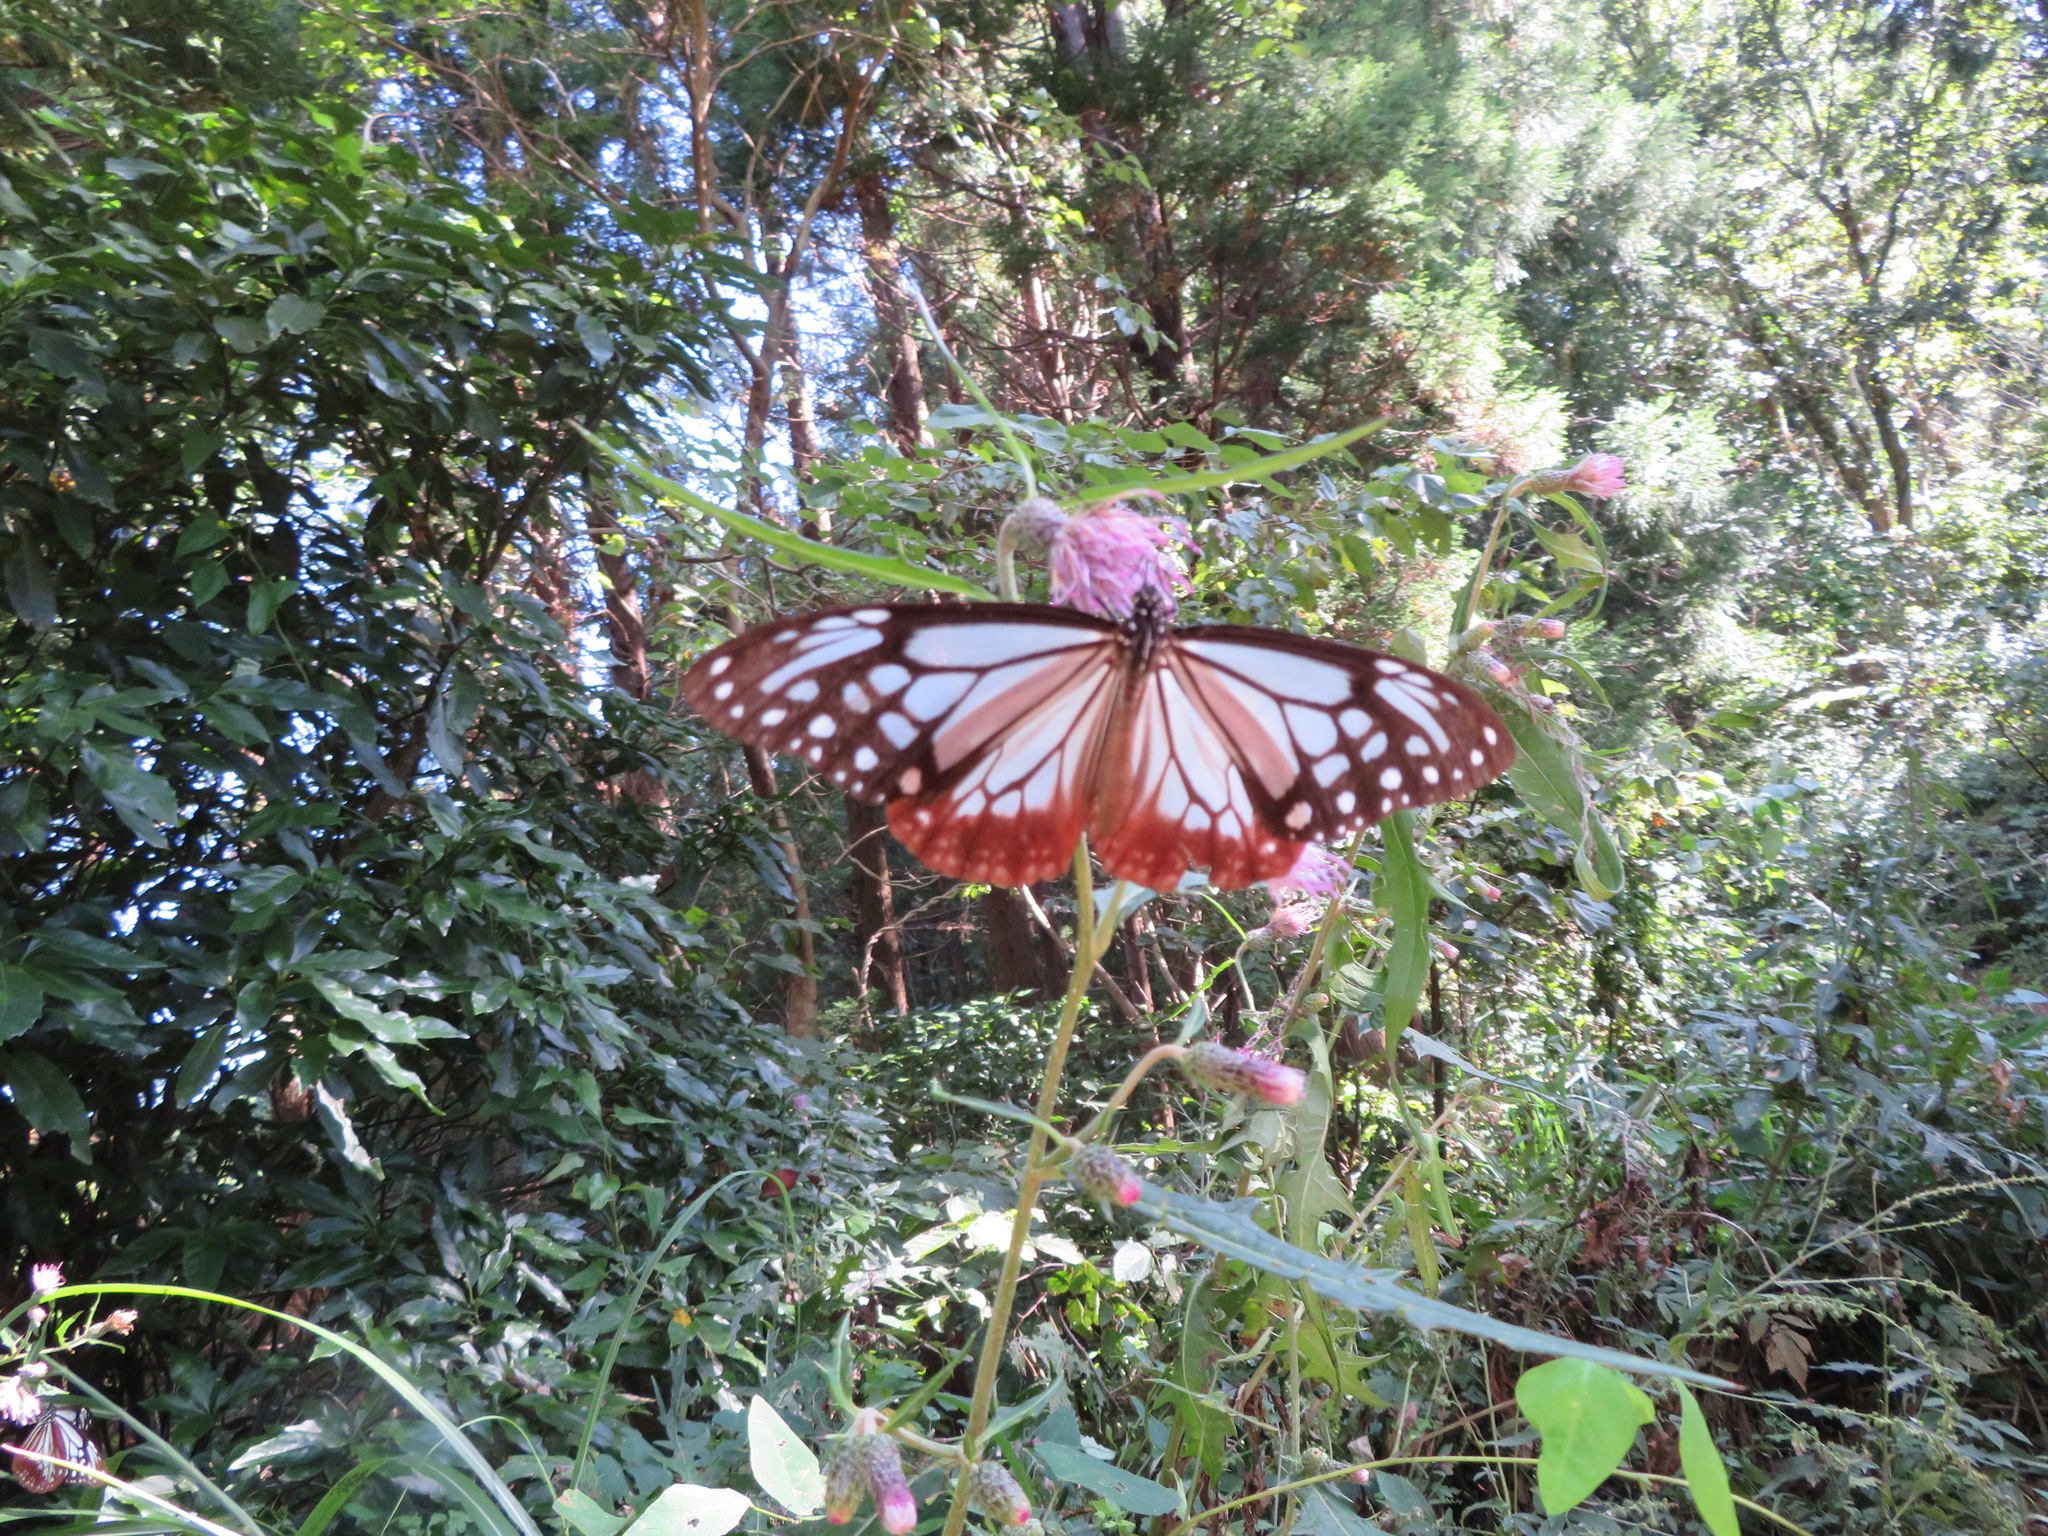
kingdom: Animalia
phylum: Arthropoda
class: Insecta
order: Lepidoptera
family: Nymphalidae
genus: Parantica
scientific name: Parantica sita
